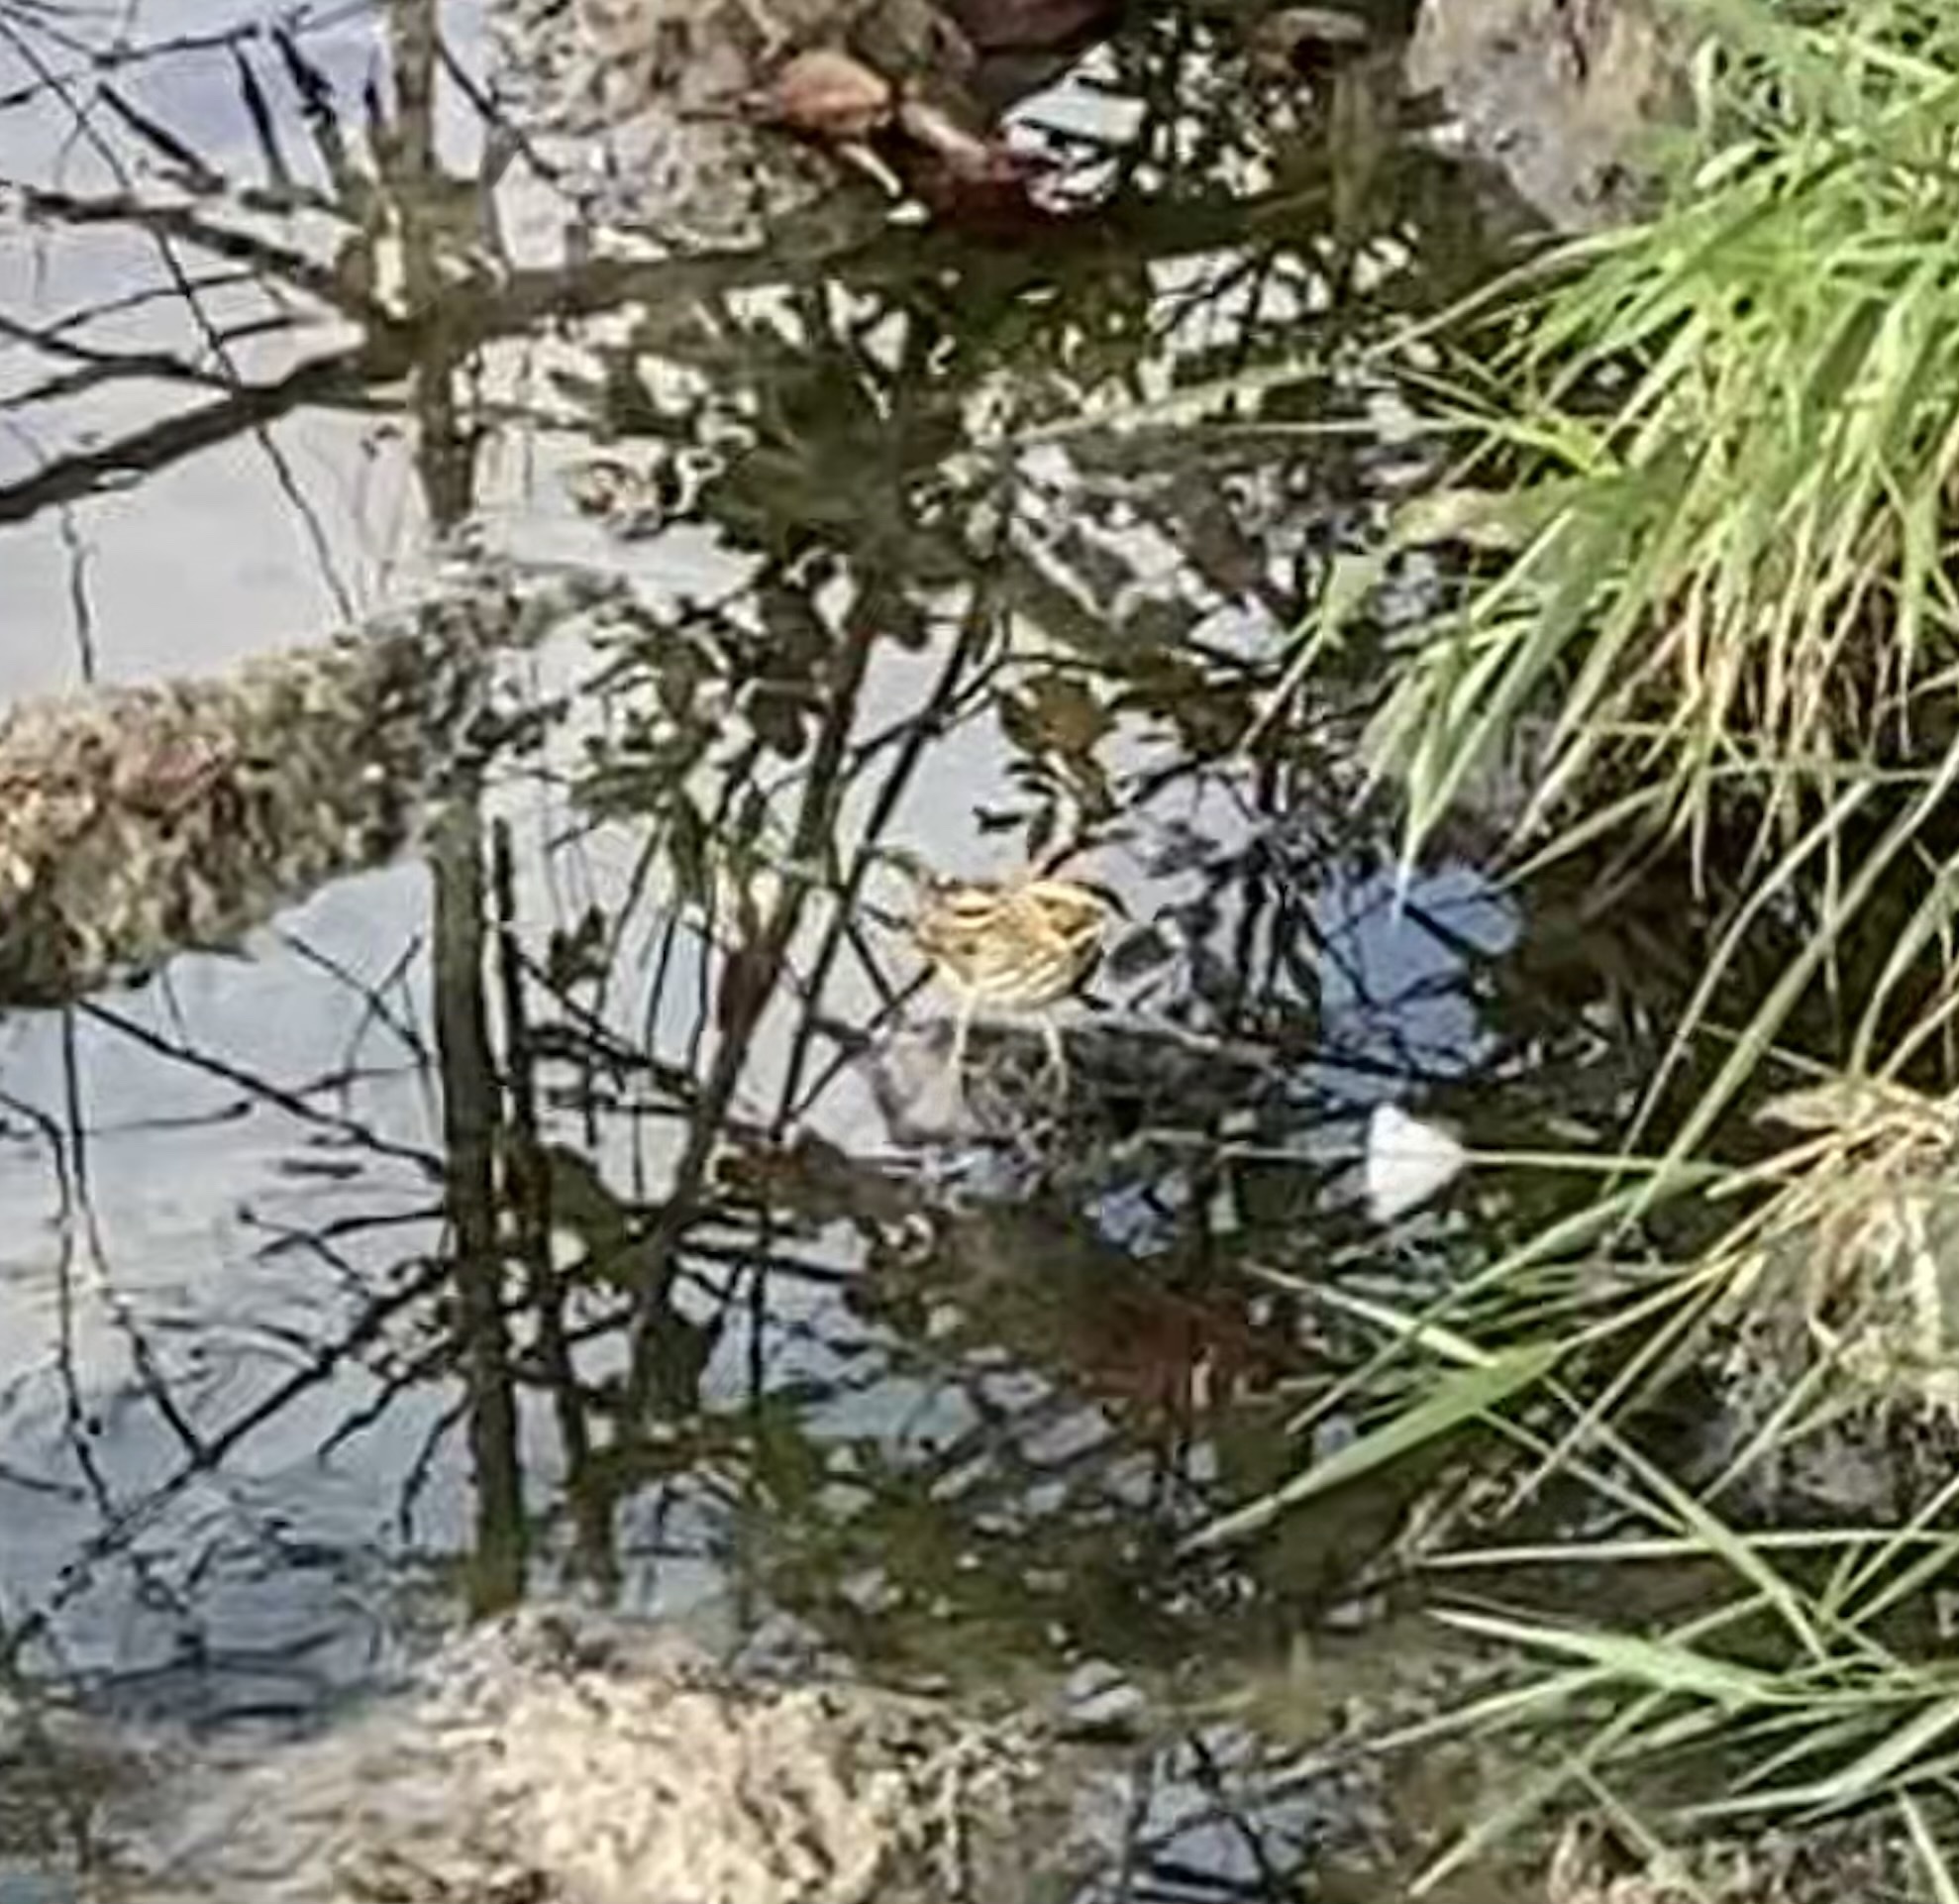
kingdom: Animalia
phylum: Chordata
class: Aves
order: Passeriformes
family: Passerellidae
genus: Passerculus
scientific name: Passerculus sandwichensis
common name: Savannah sparrow
